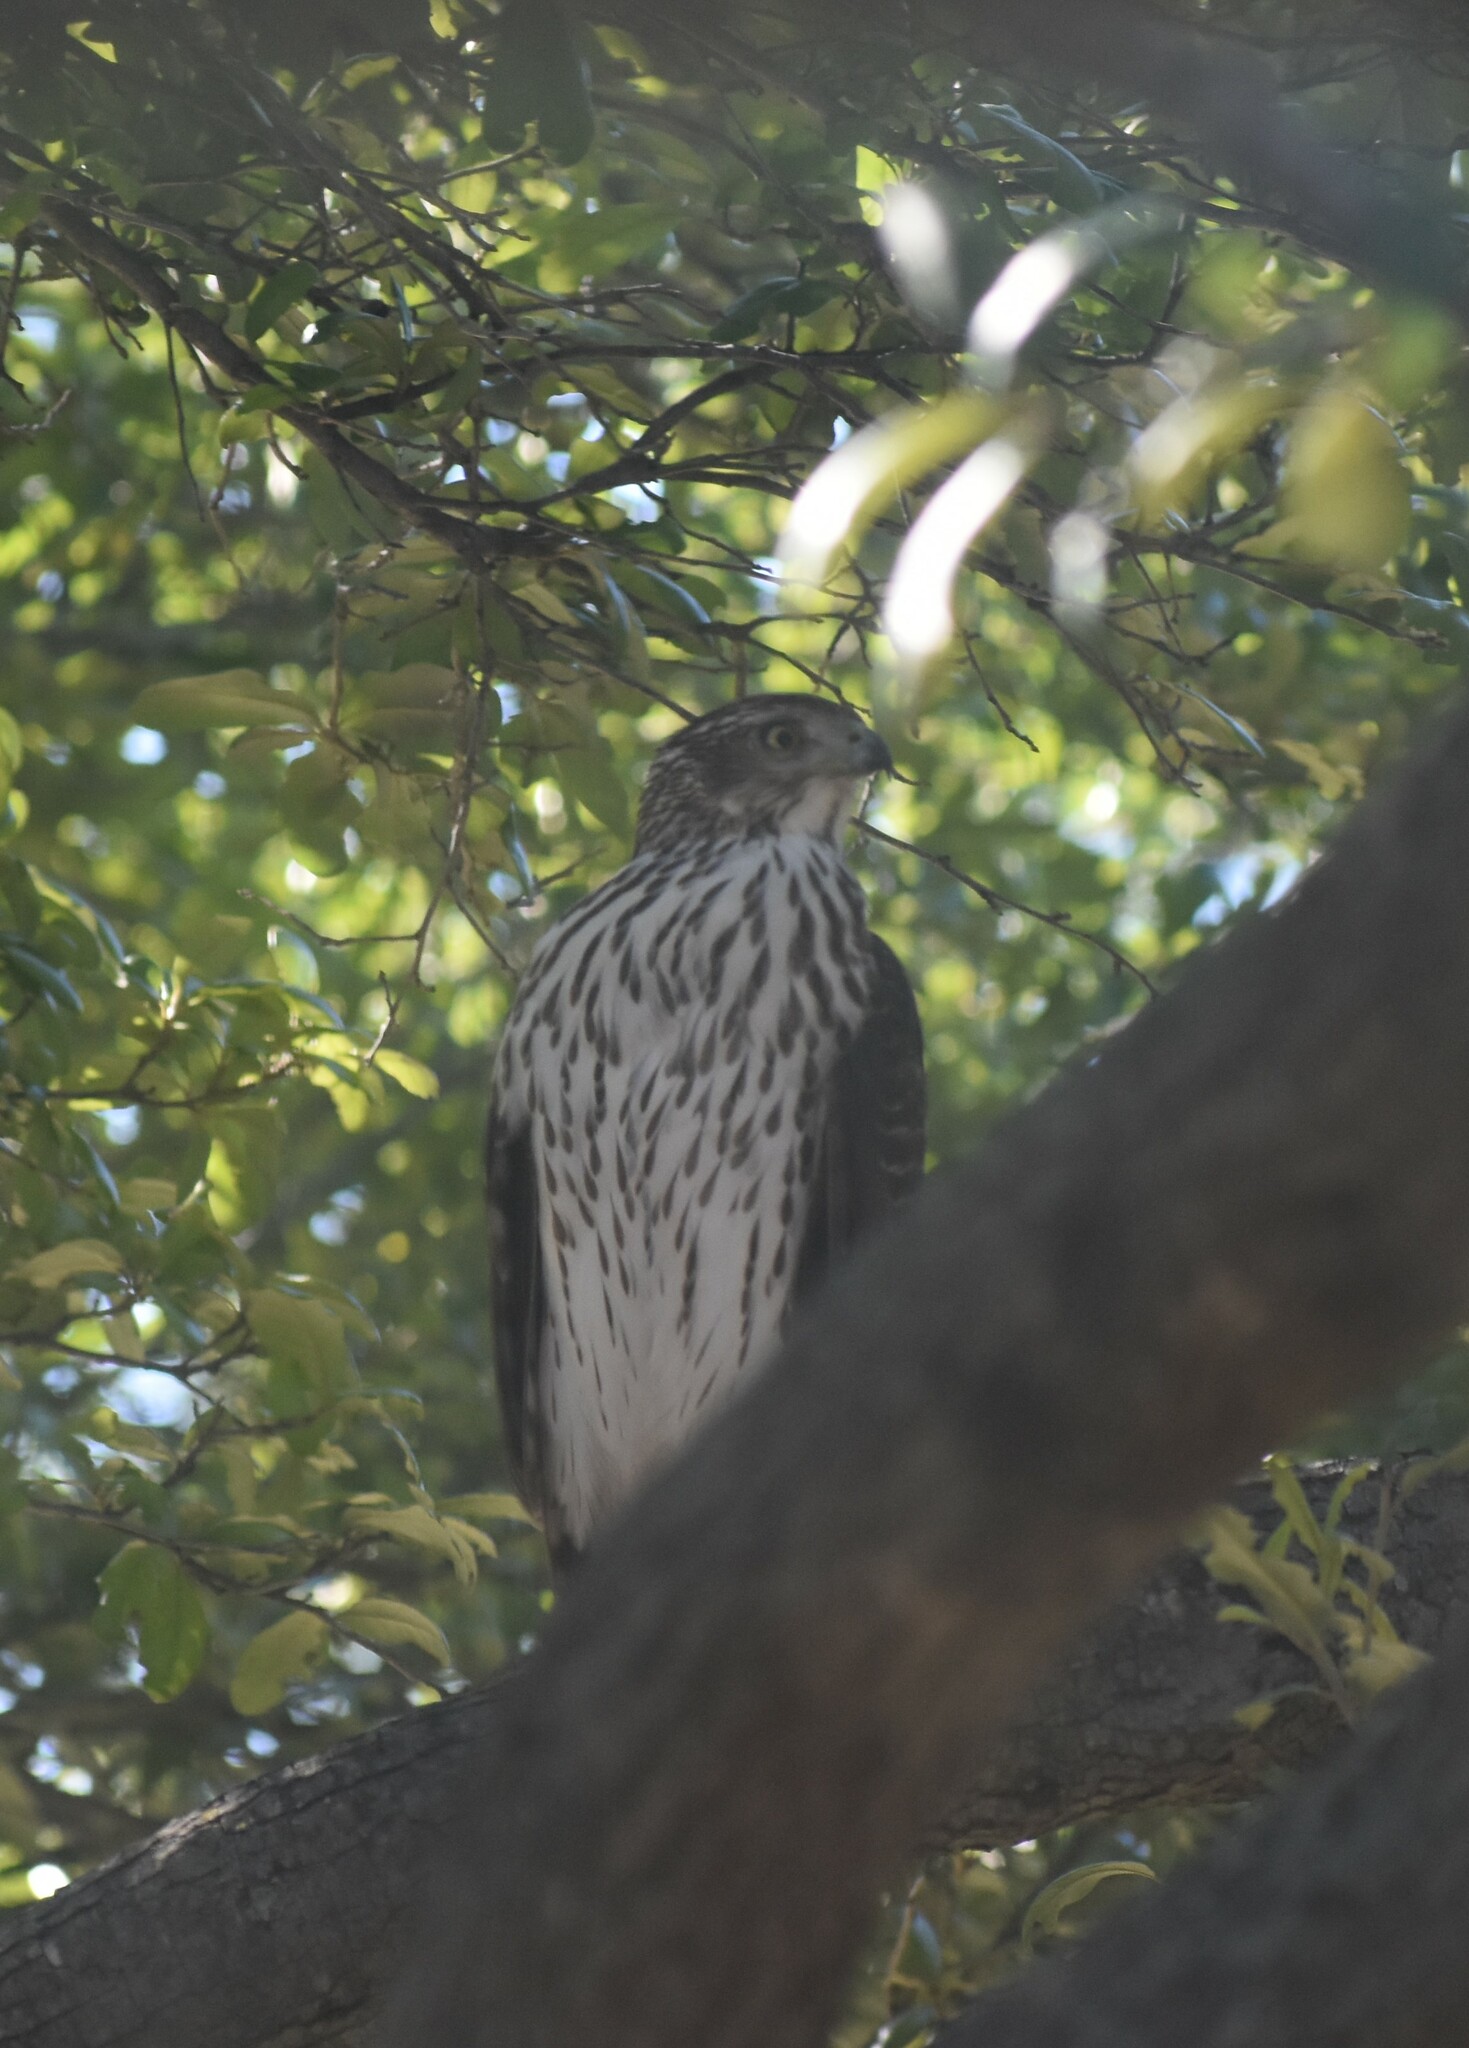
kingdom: Animalia
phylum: Chordata
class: Aves
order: Accipitriformes
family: Accipitridae
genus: Accipiter
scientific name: Accipiter cooperii
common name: Cooper's hawk
